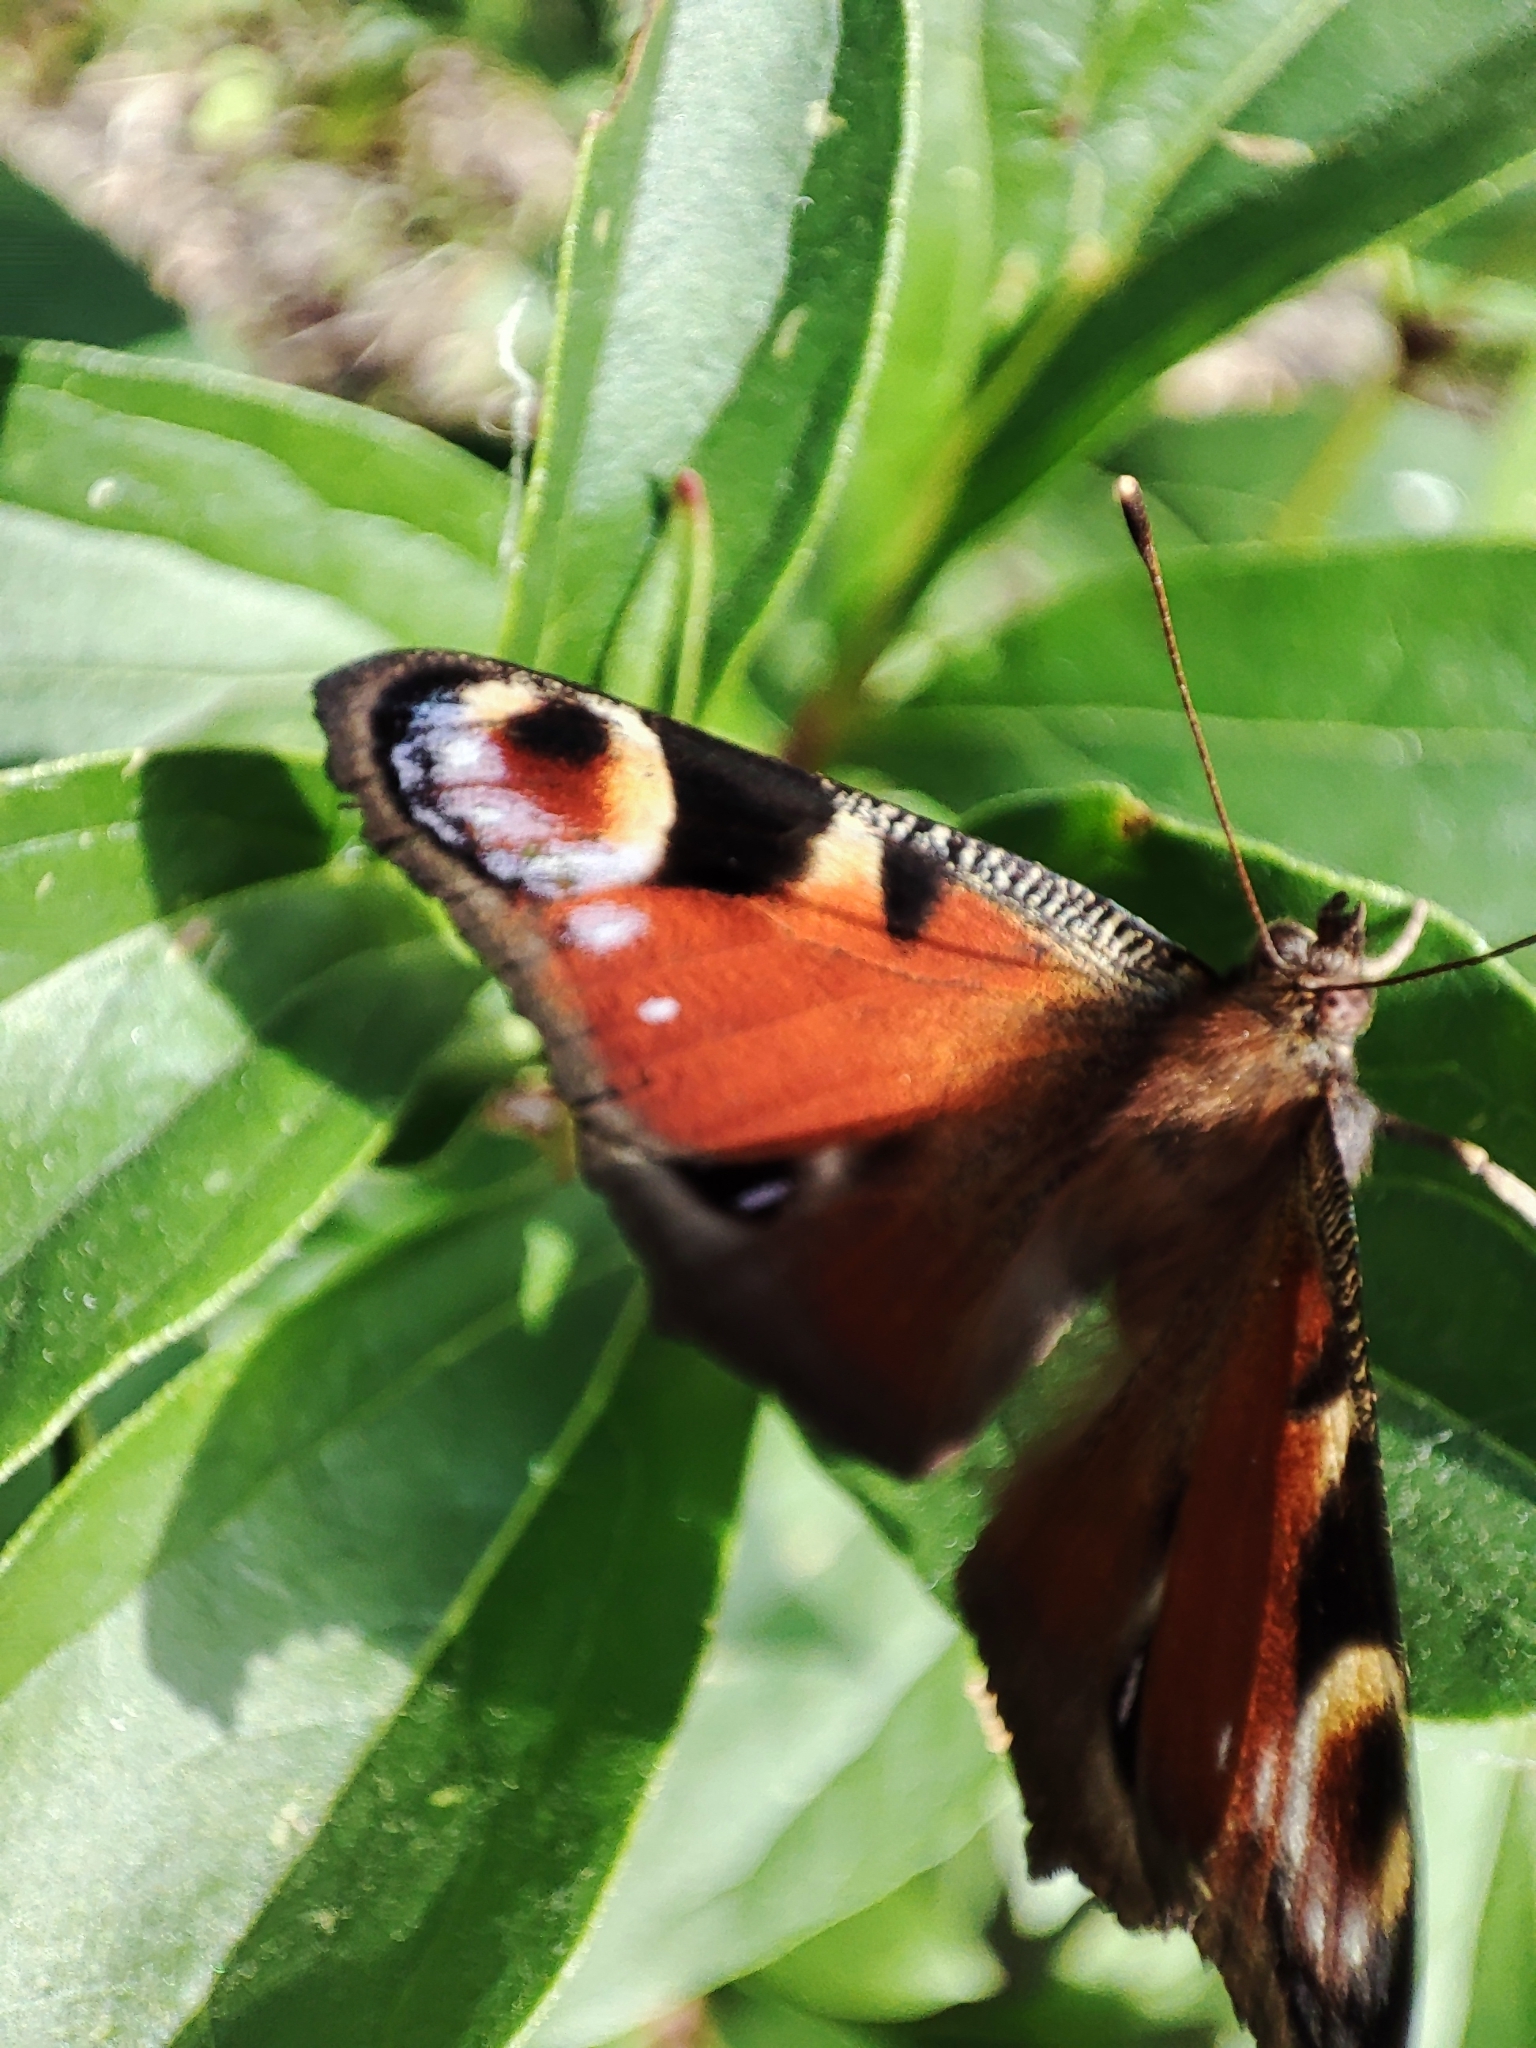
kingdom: Animalia
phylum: Arthropoda
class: Insecta
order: Lepidoptera
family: Nymphalidae
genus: Aglais
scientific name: Aglais io
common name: Peacock
